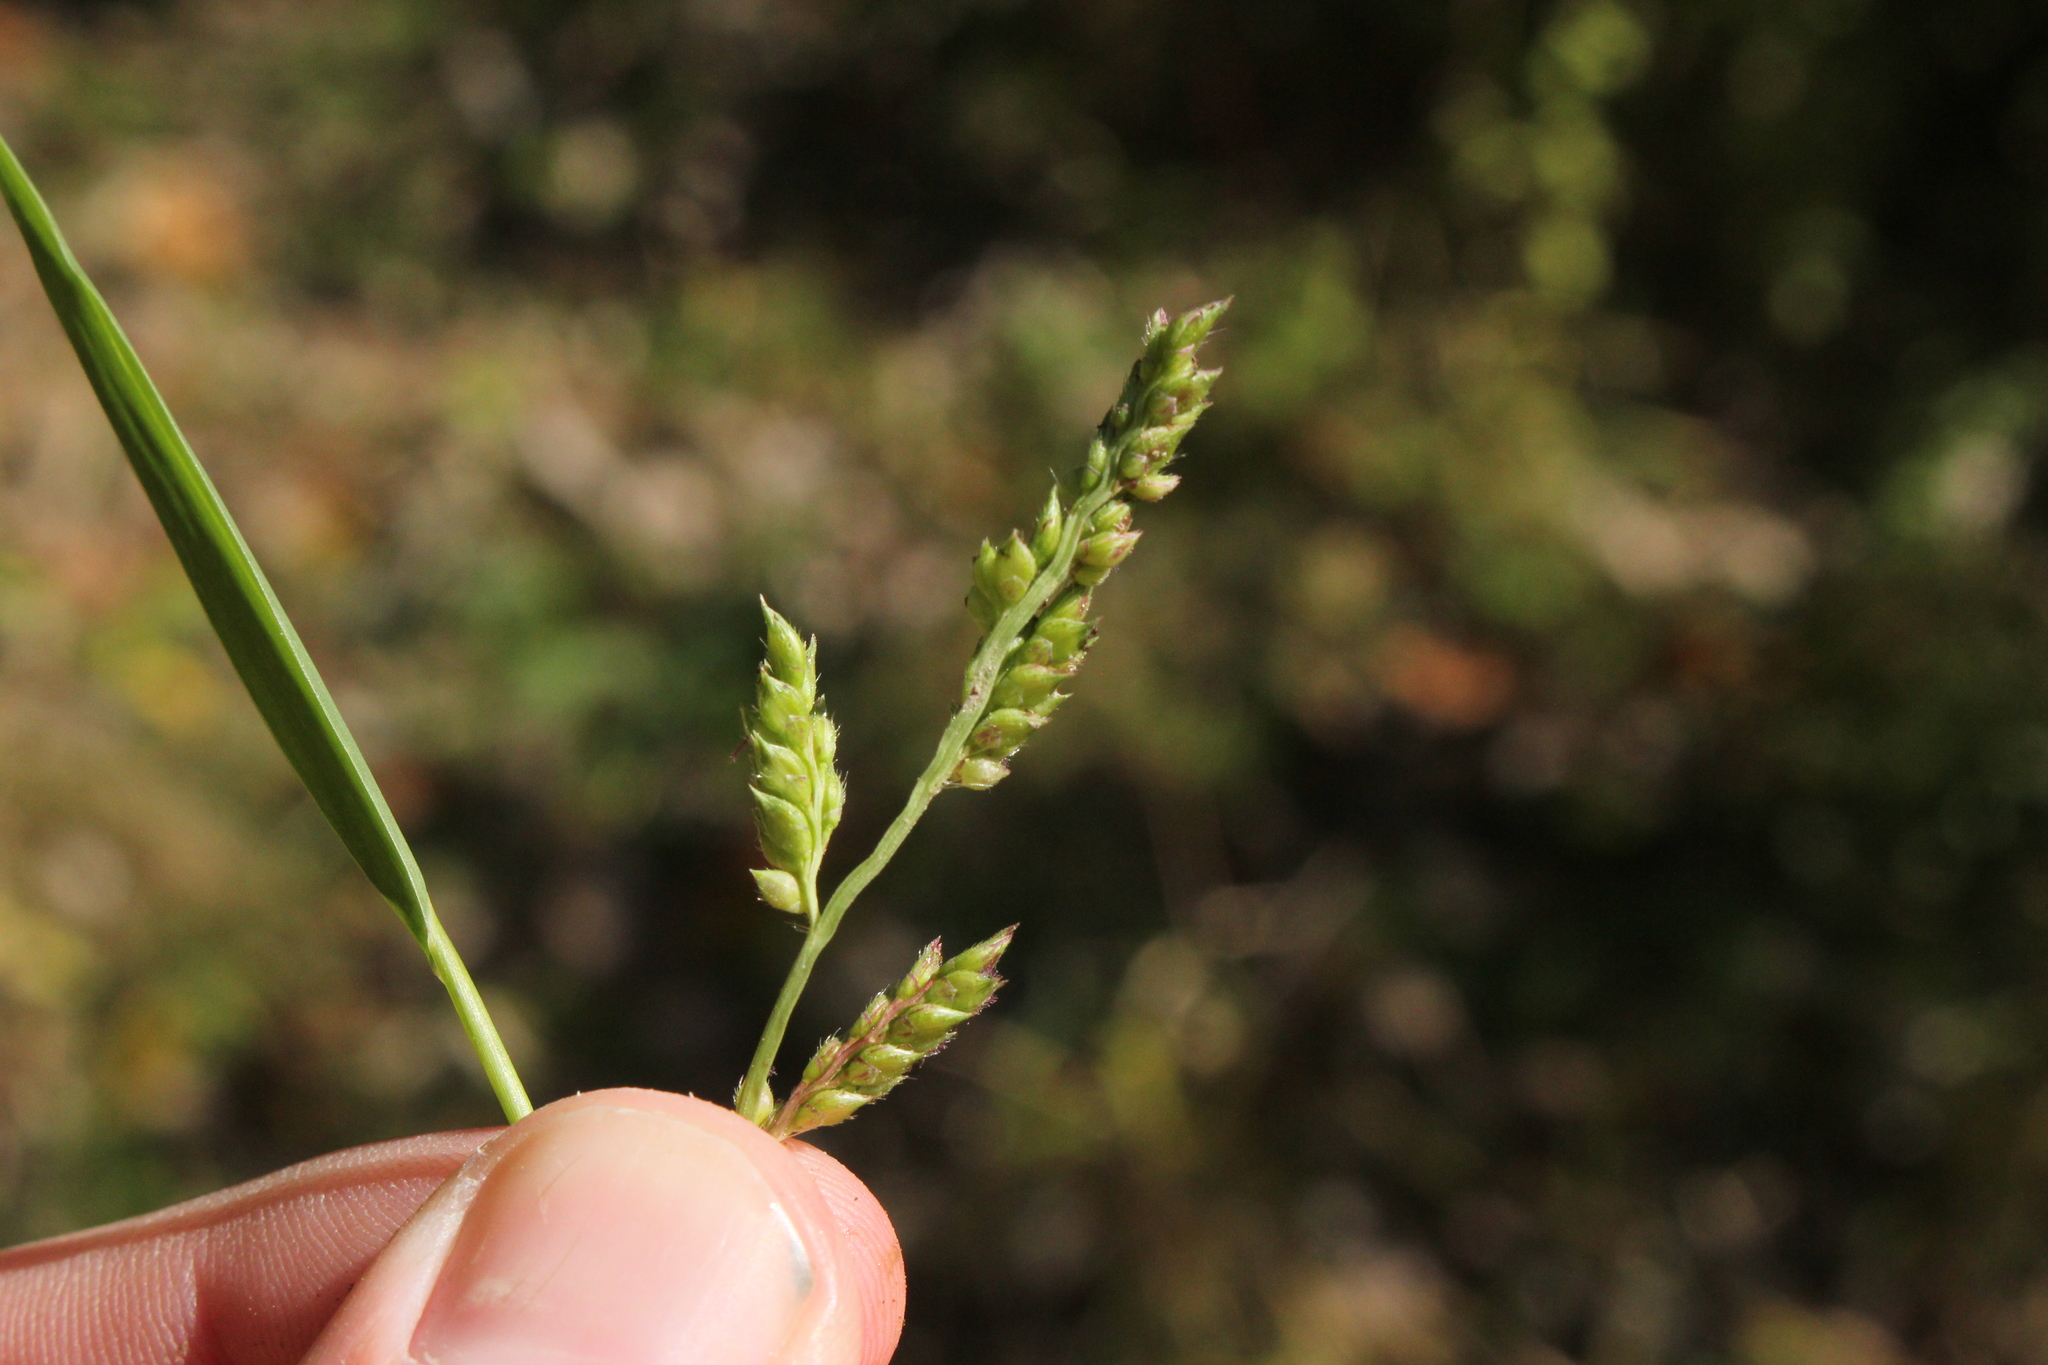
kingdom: Plantae
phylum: Tracheophyta
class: Liliopsida
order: Poales
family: Poaceae
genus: Echinochloa
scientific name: Echinochloa crus-galli
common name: Cockspur
